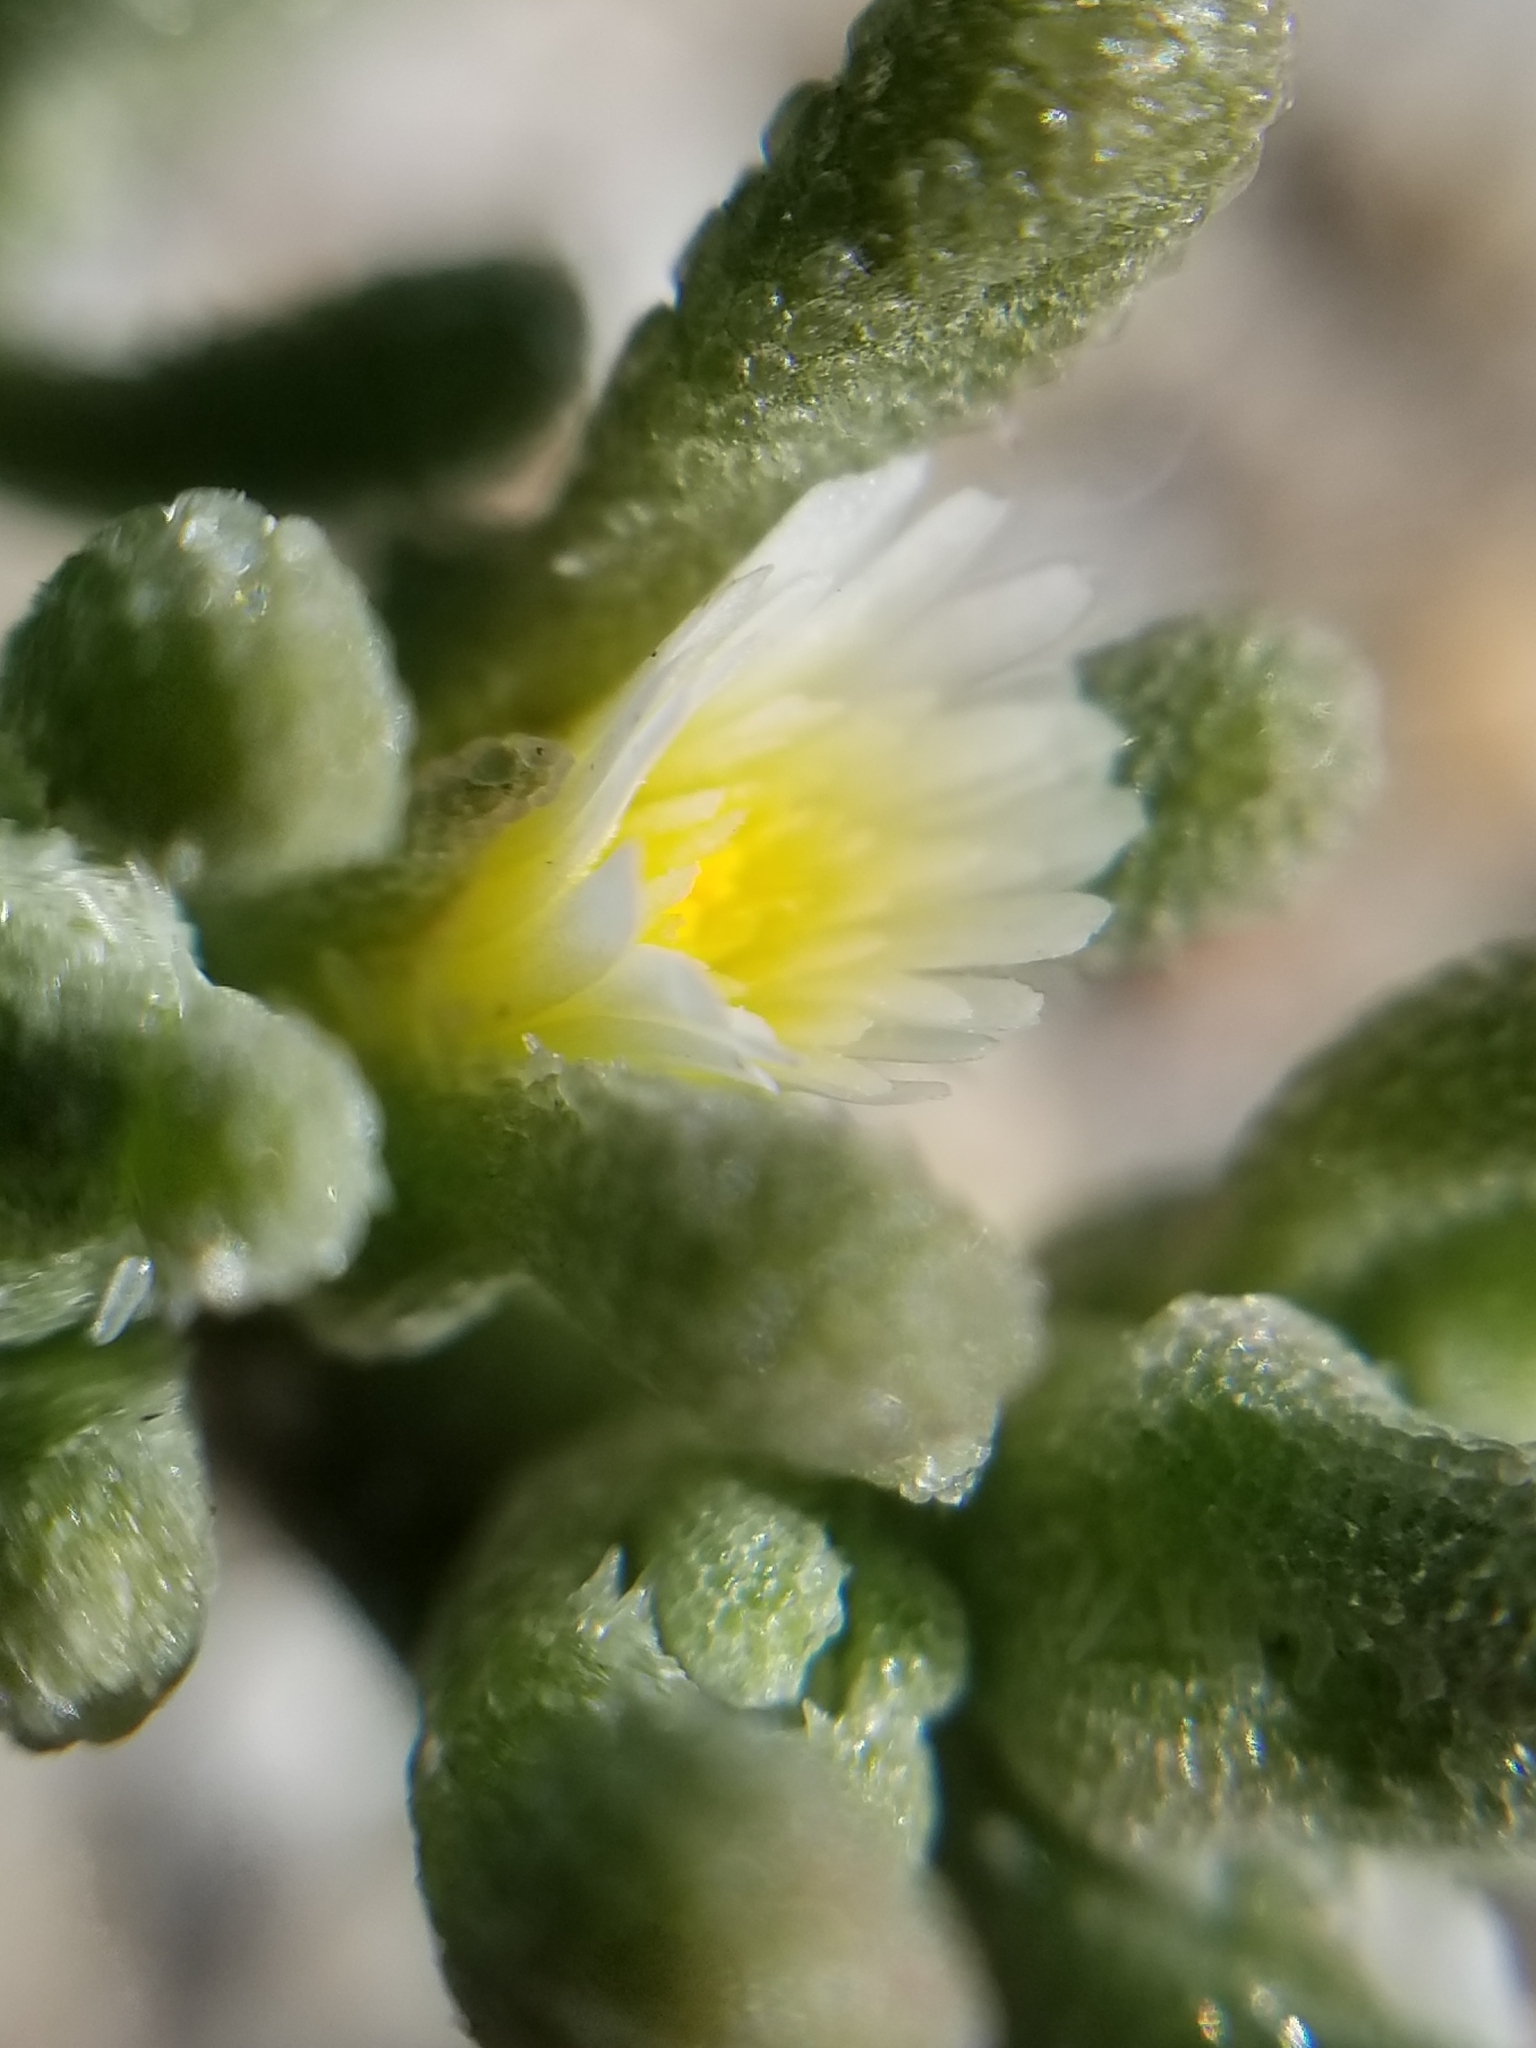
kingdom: Plantae
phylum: Tracheophyta
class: Magnoliopsida
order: Caryophyllales
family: Aizoaceae
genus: Mesembryanthemum
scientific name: Mesembryanthemum nodiflorum
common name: Slenderleaf iceplant
